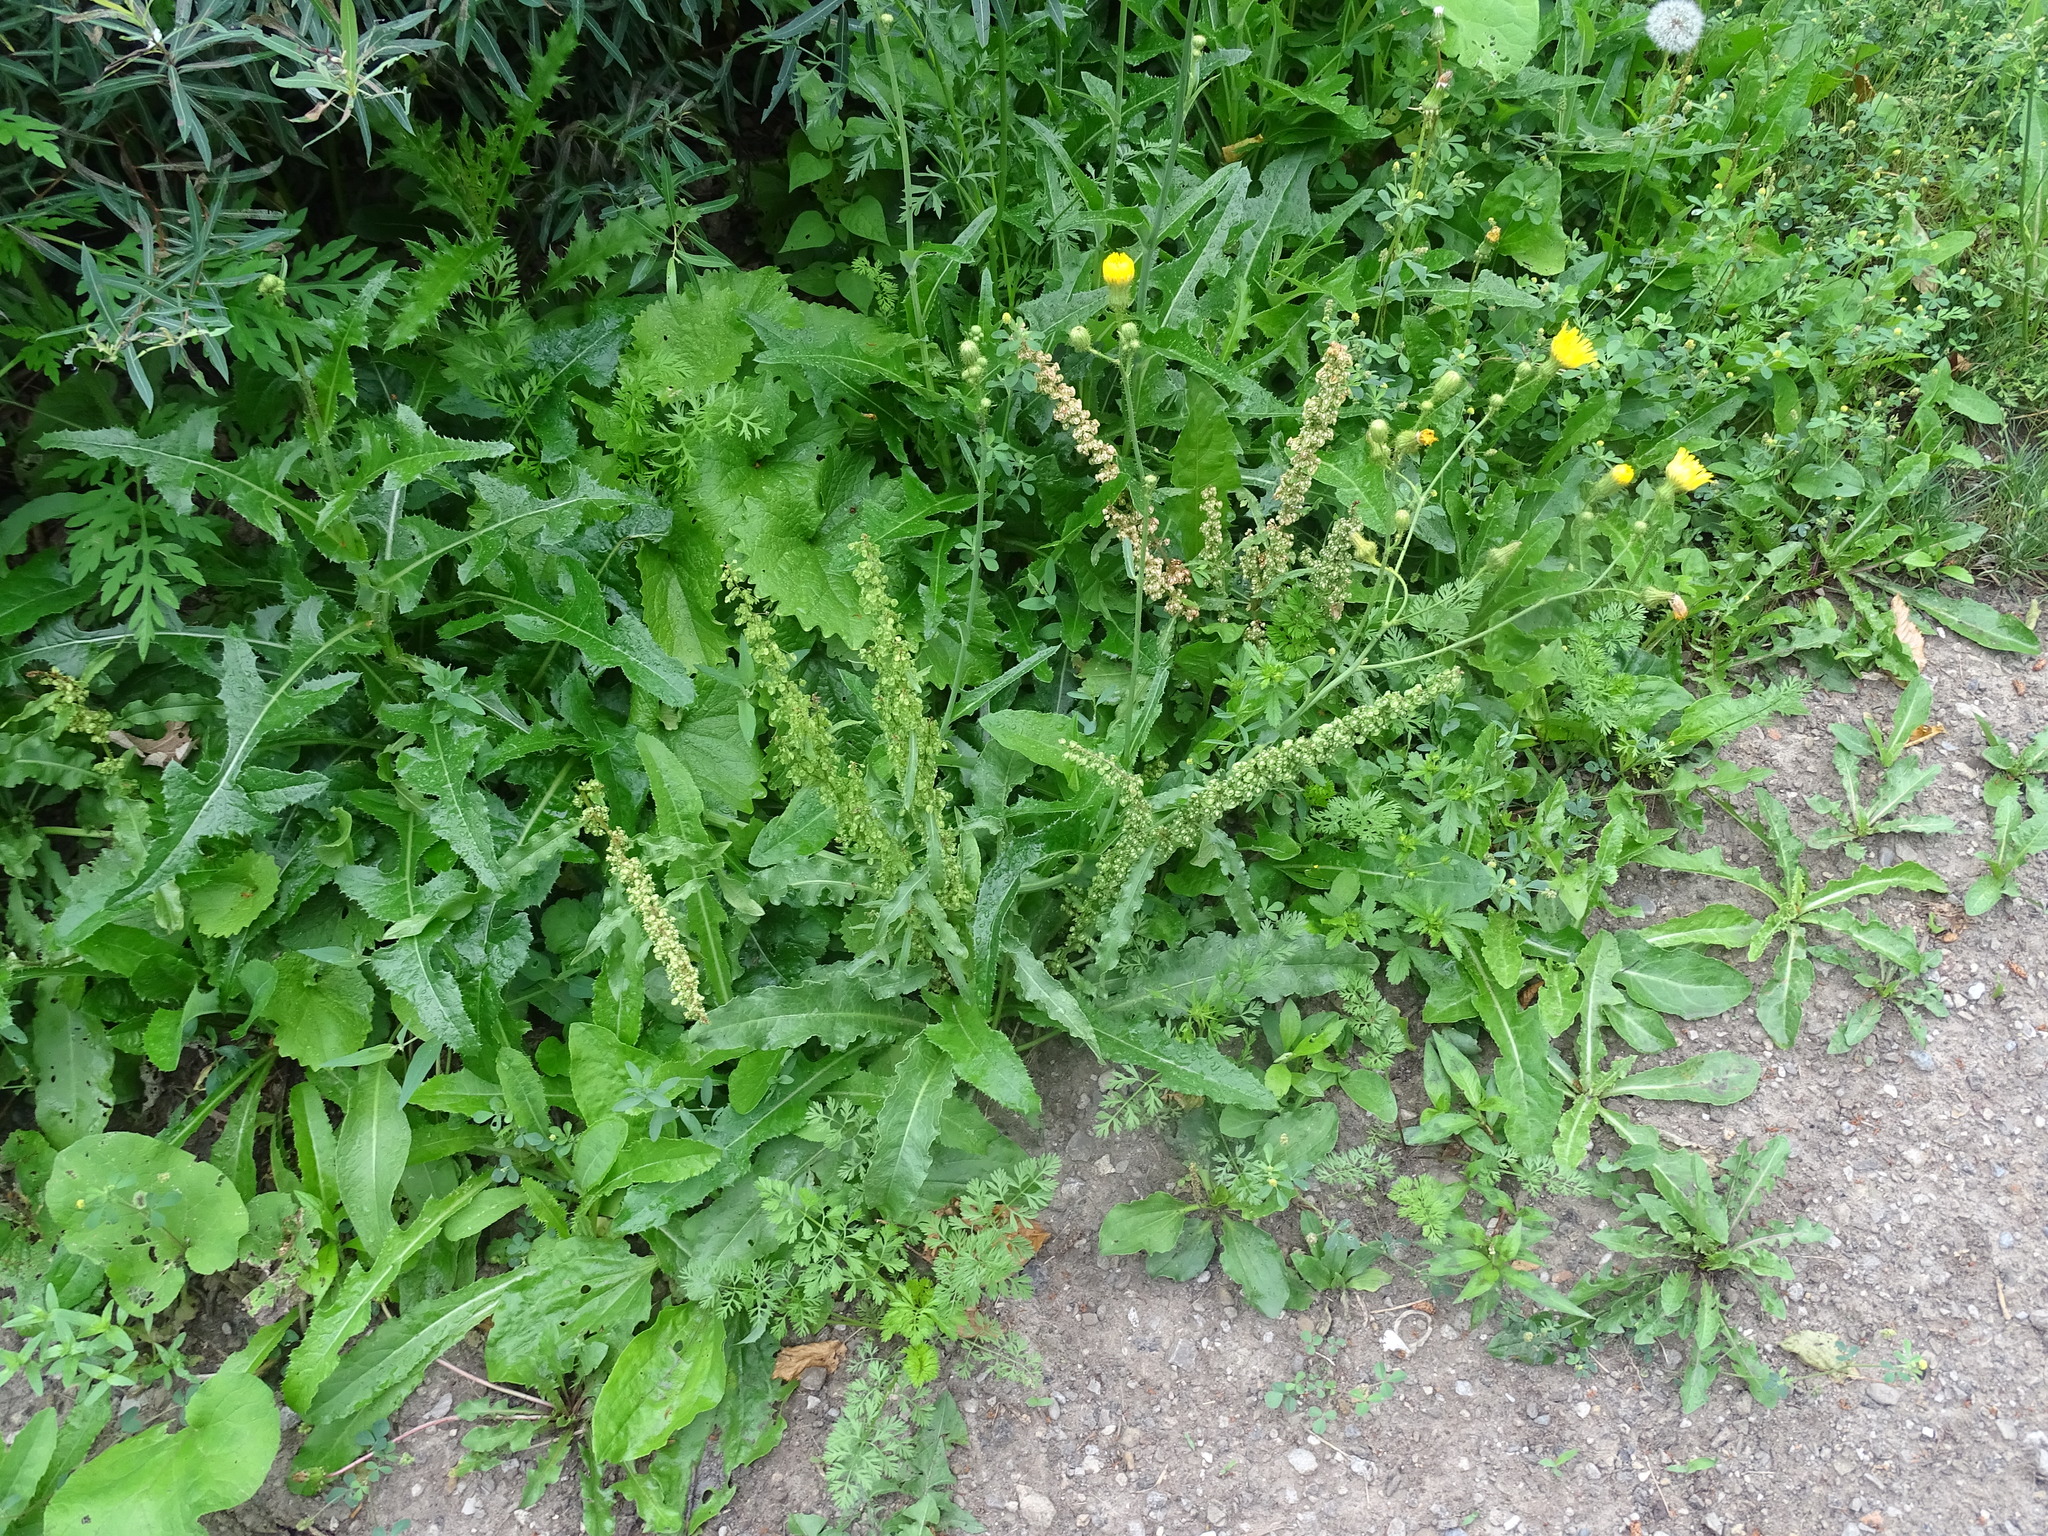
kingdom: Plantae
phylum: Tracheophyta
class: Magnoliopsida
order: Caryophyllales
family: Polygonaceae
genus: Rumex
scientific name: Rumex crispus
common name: Curled dock
